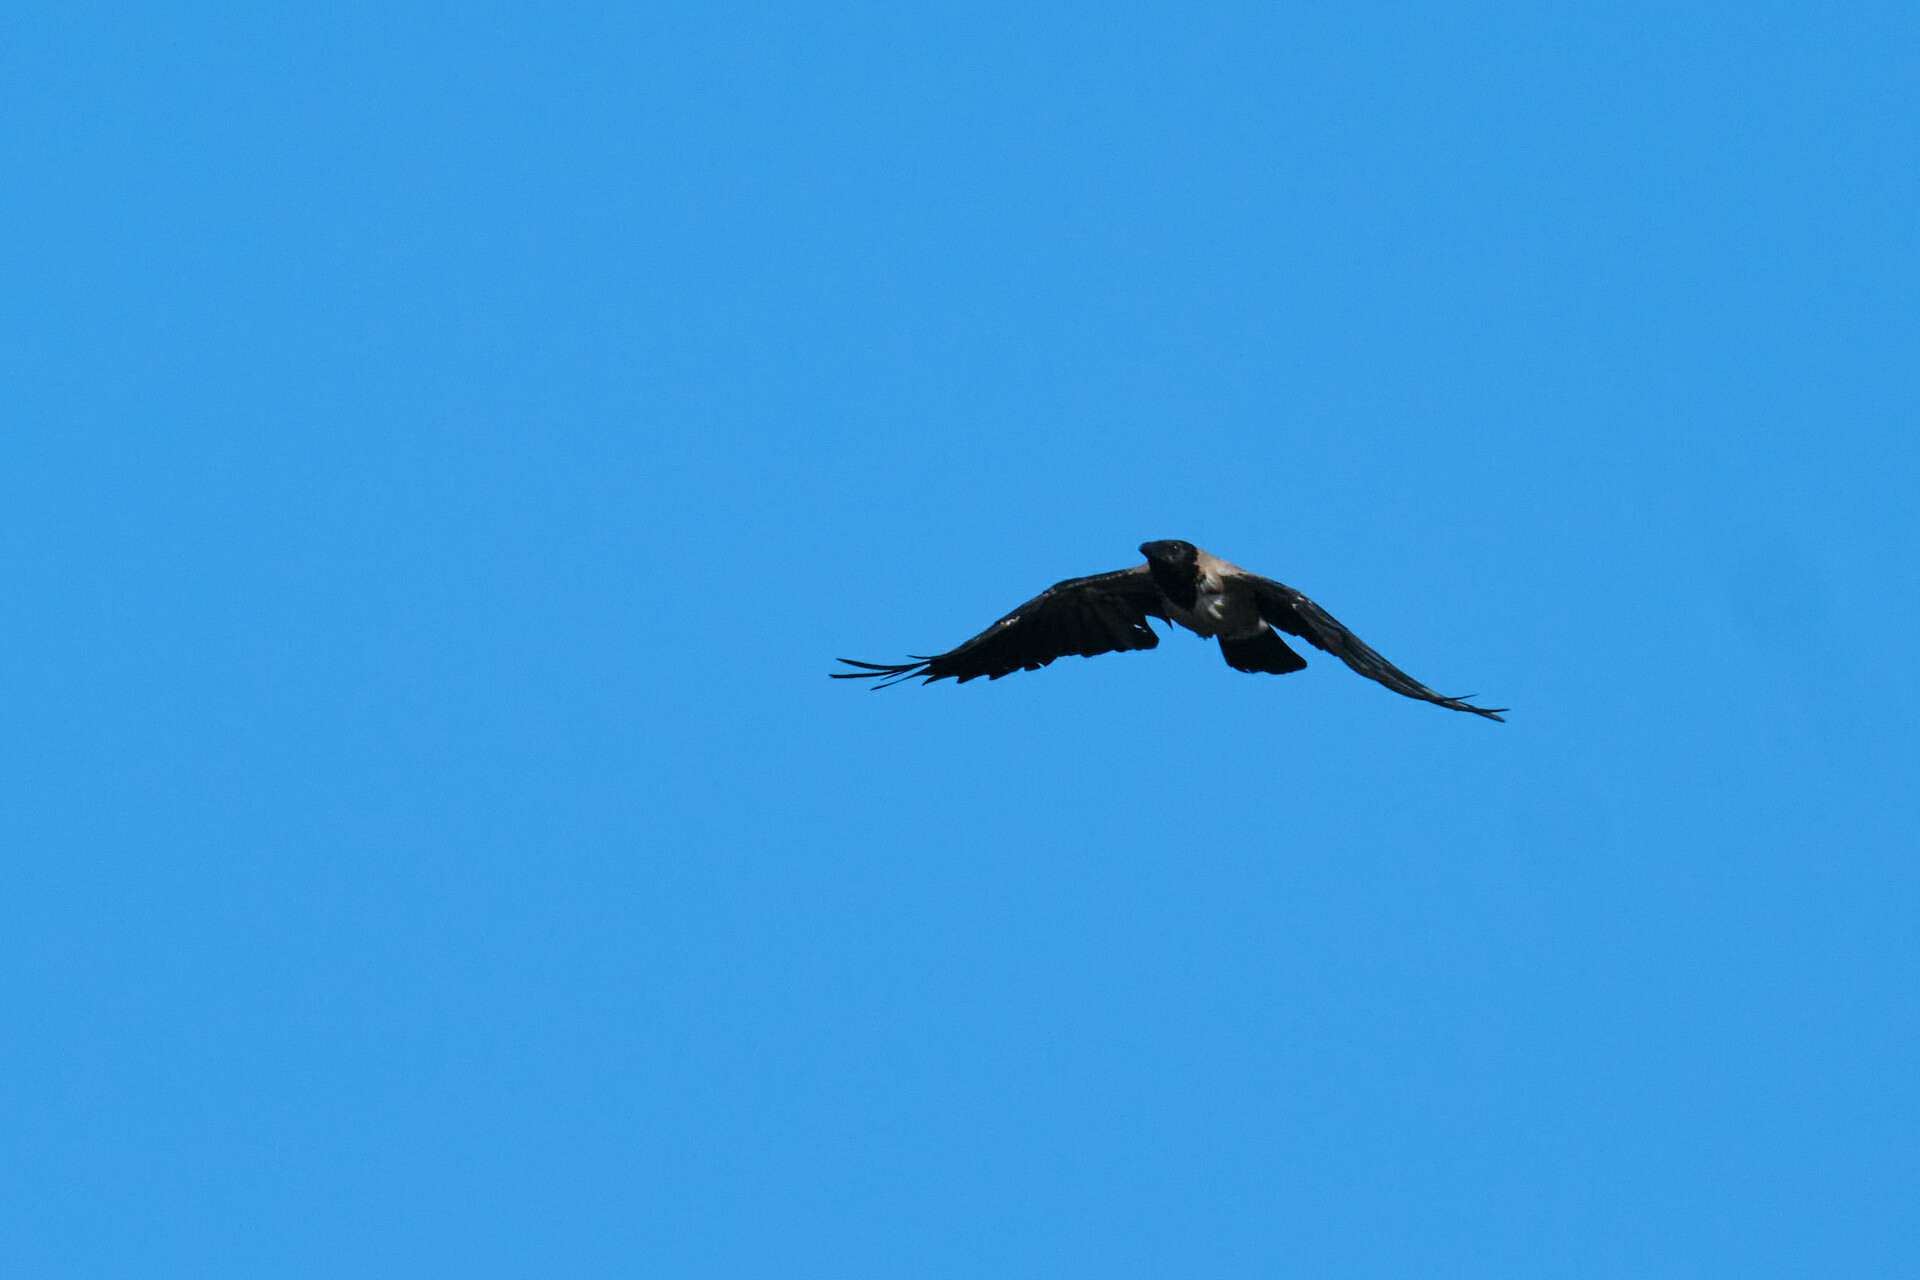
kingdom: Animalia
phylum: Chordata
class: Aves
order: Passeriformes
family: Corvidae
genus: Corvus
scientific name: Corvus cornix
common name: Hooded crow
